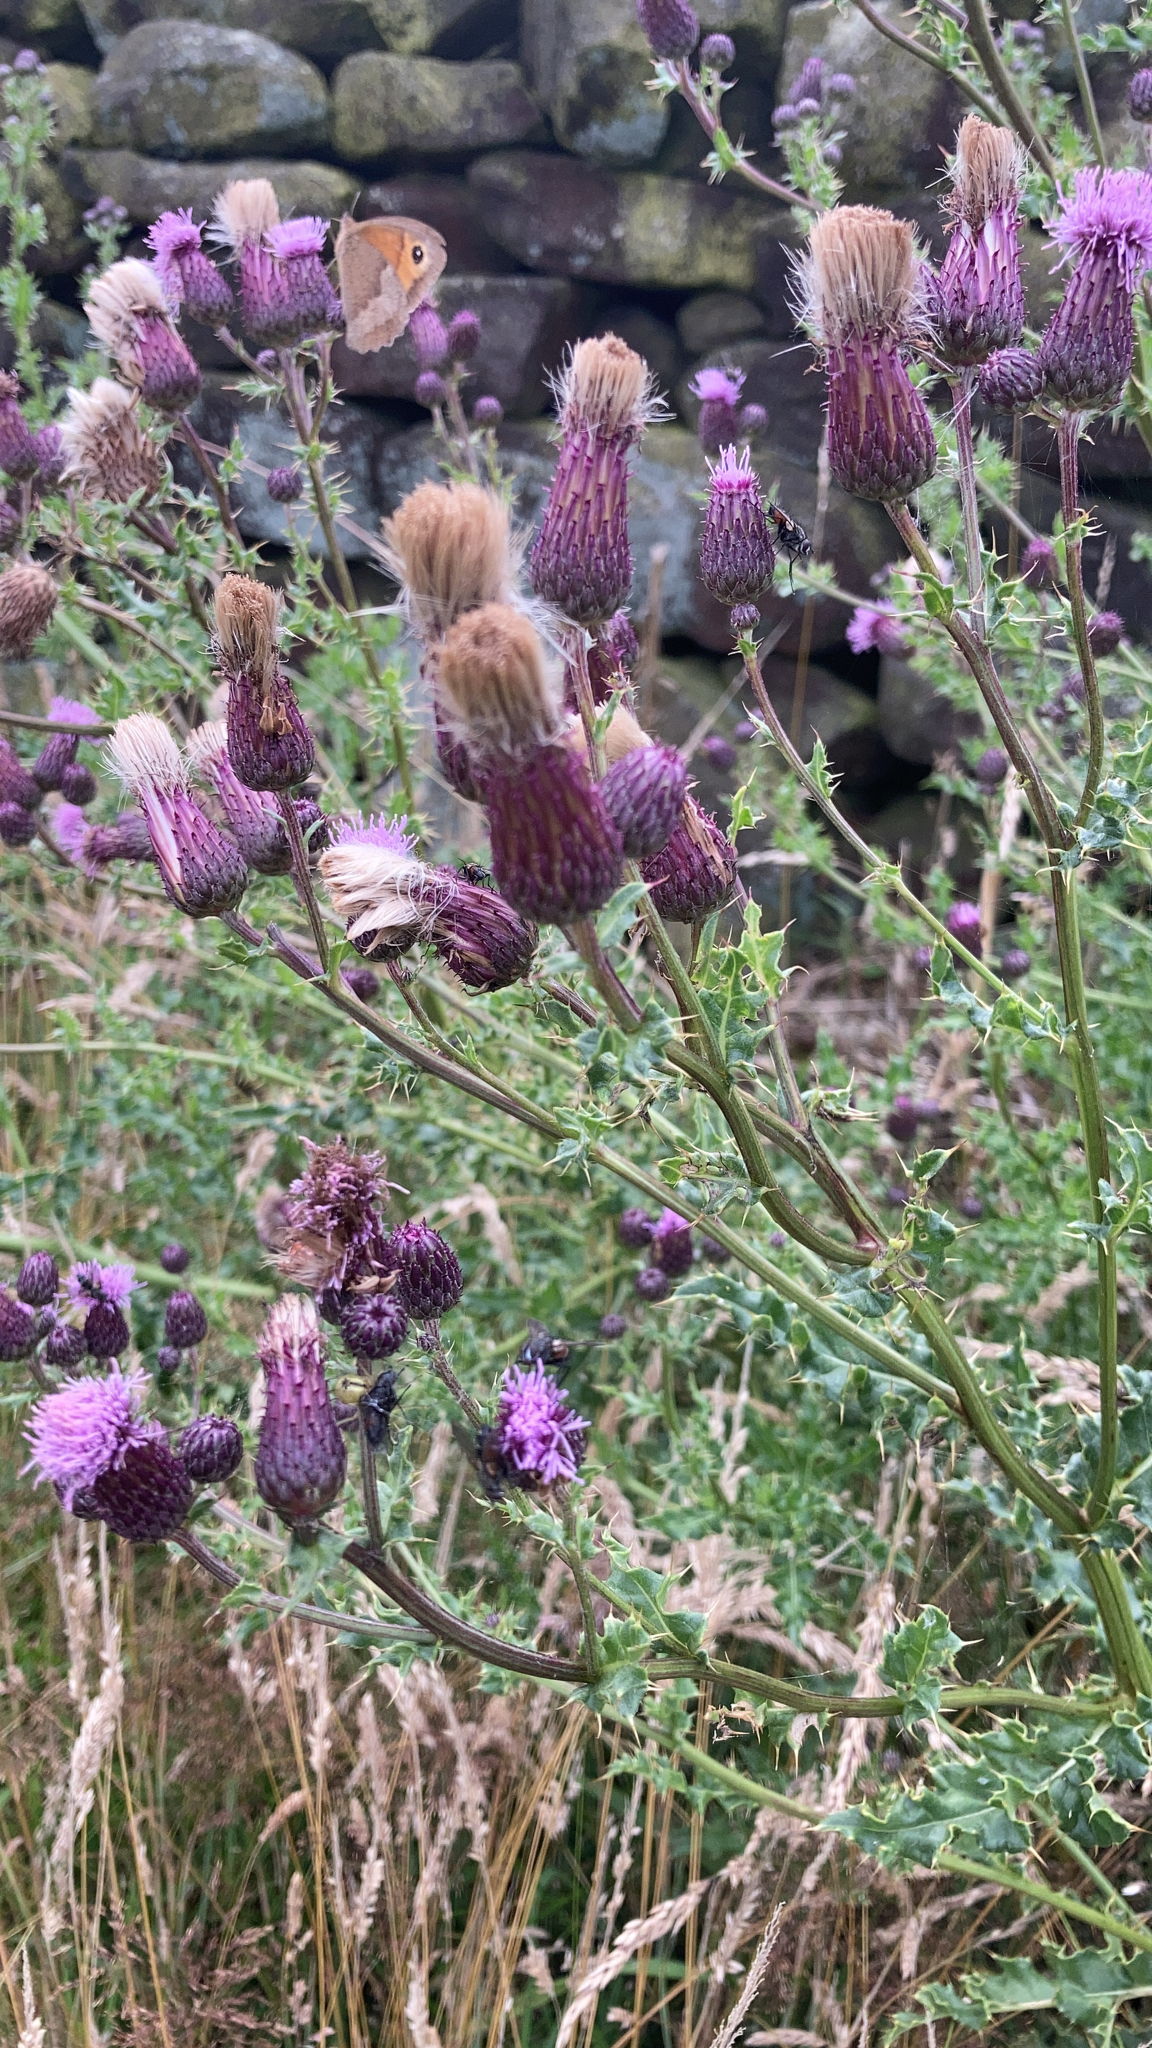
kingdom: Plantae
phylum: Tracheophyta
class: Magnoliopsida
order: Asterales
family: Asteraceae
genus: Cirsium
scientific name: Cirsium arvense
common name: Creeping thistle
